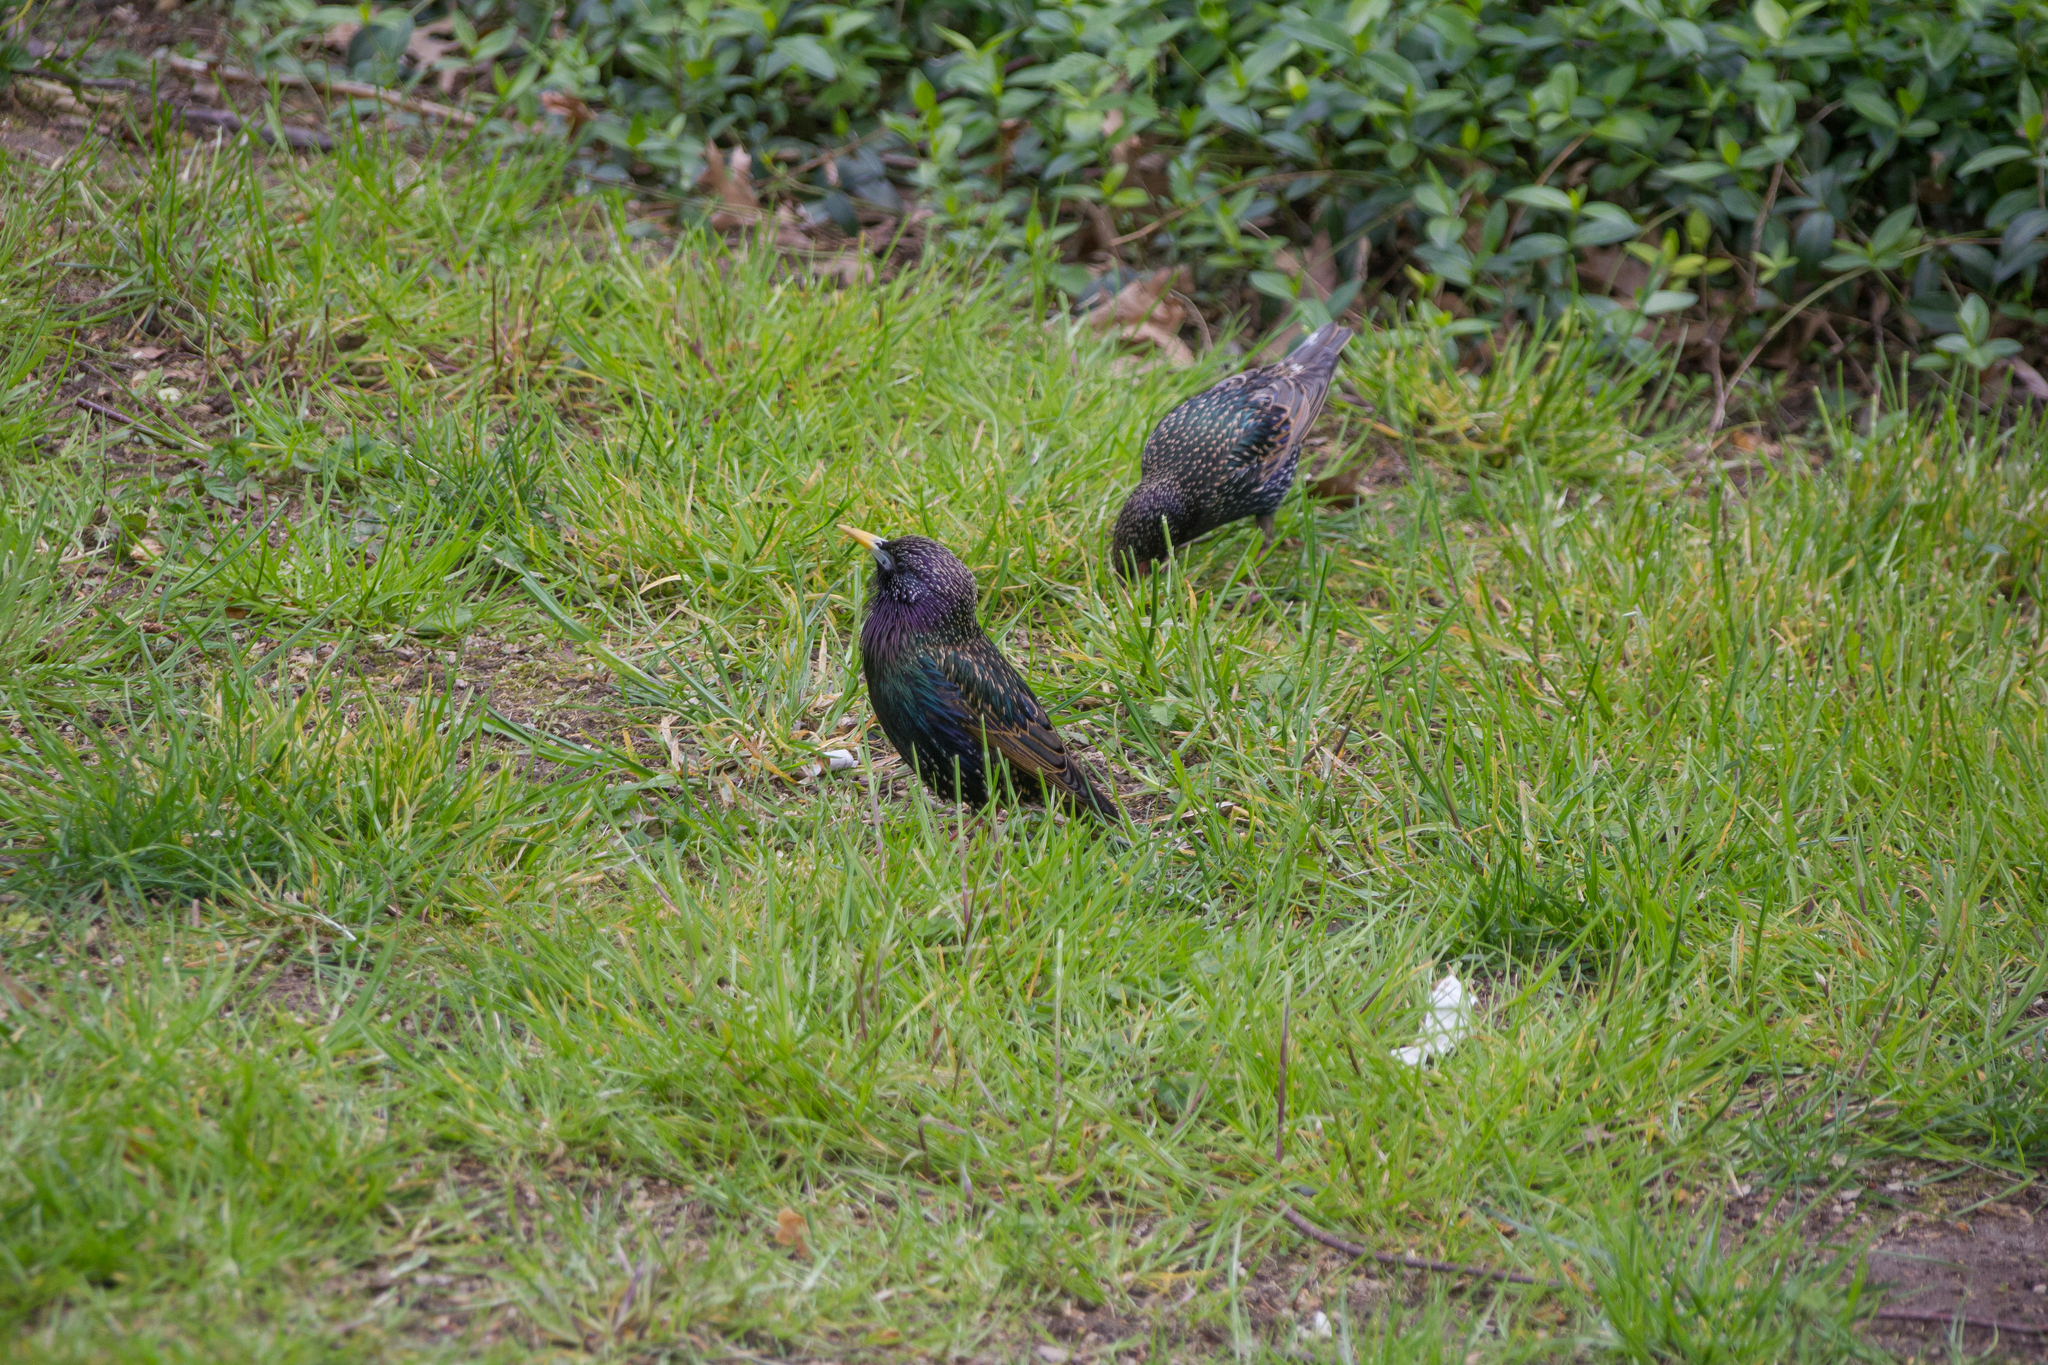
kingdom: Animalia
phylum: Chordata
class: Aves
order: Passeriformes
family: Sturnidae
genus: Sturnus
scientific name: Sturnus vulgaris
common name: Common starling
